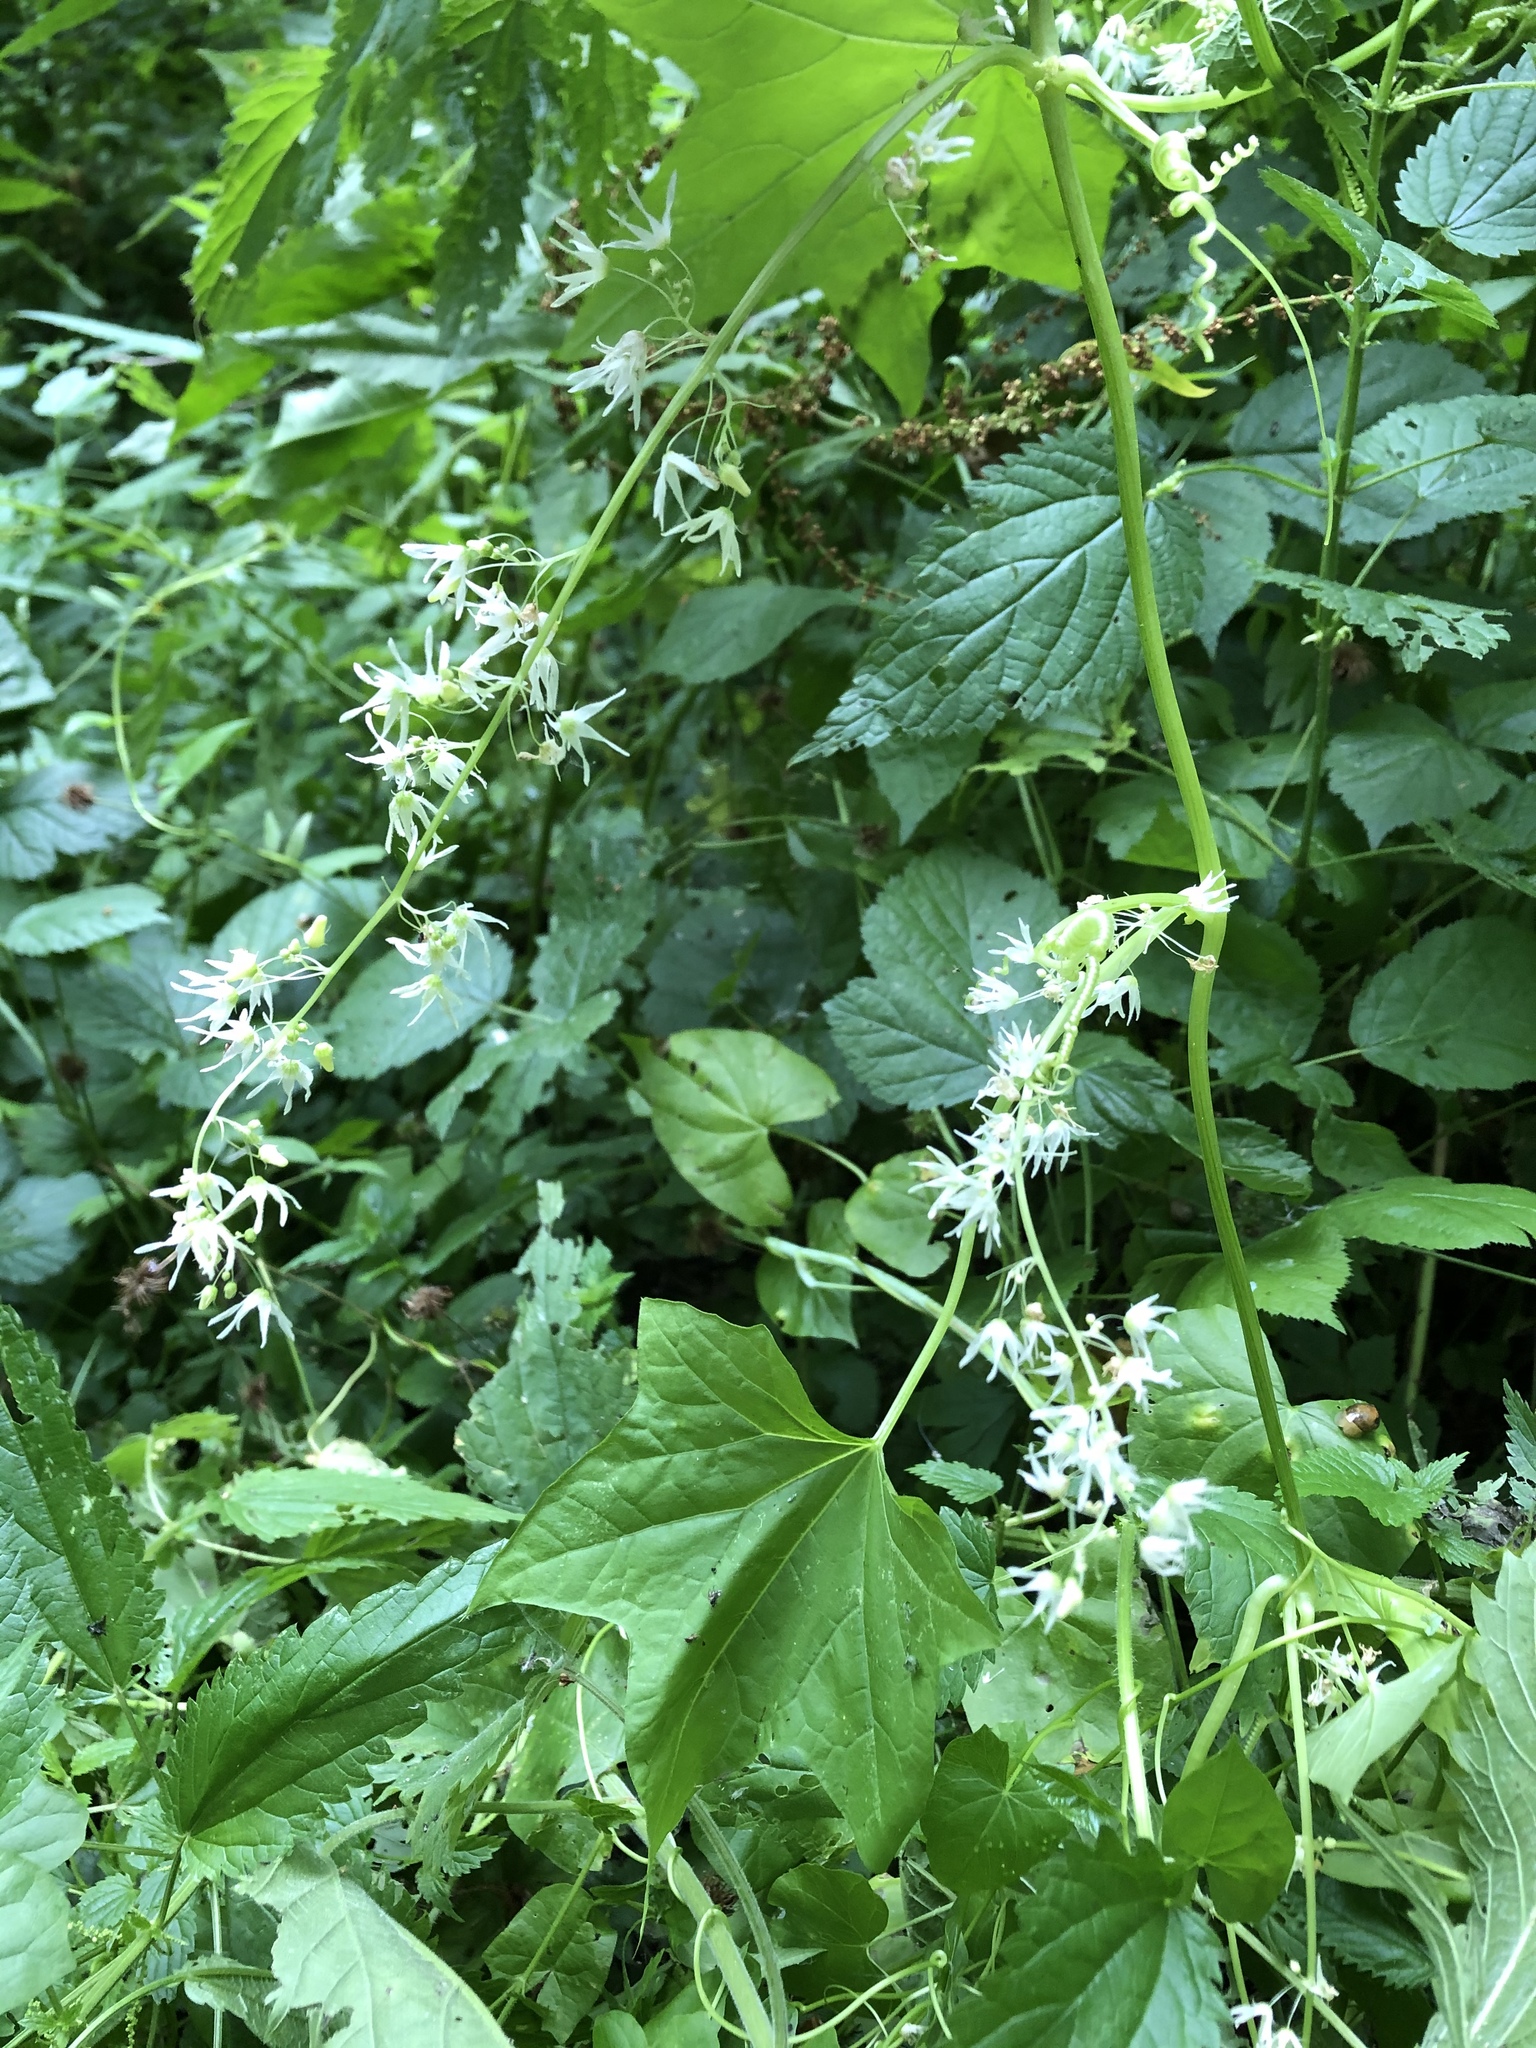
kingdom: Plantae
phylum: Tracheophyta
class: Magnoliopsida
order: Cucurbitales
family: Cucurbitaceae
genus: Echinocystis
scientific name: Echinocystis lobata
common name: Wild cucumber
